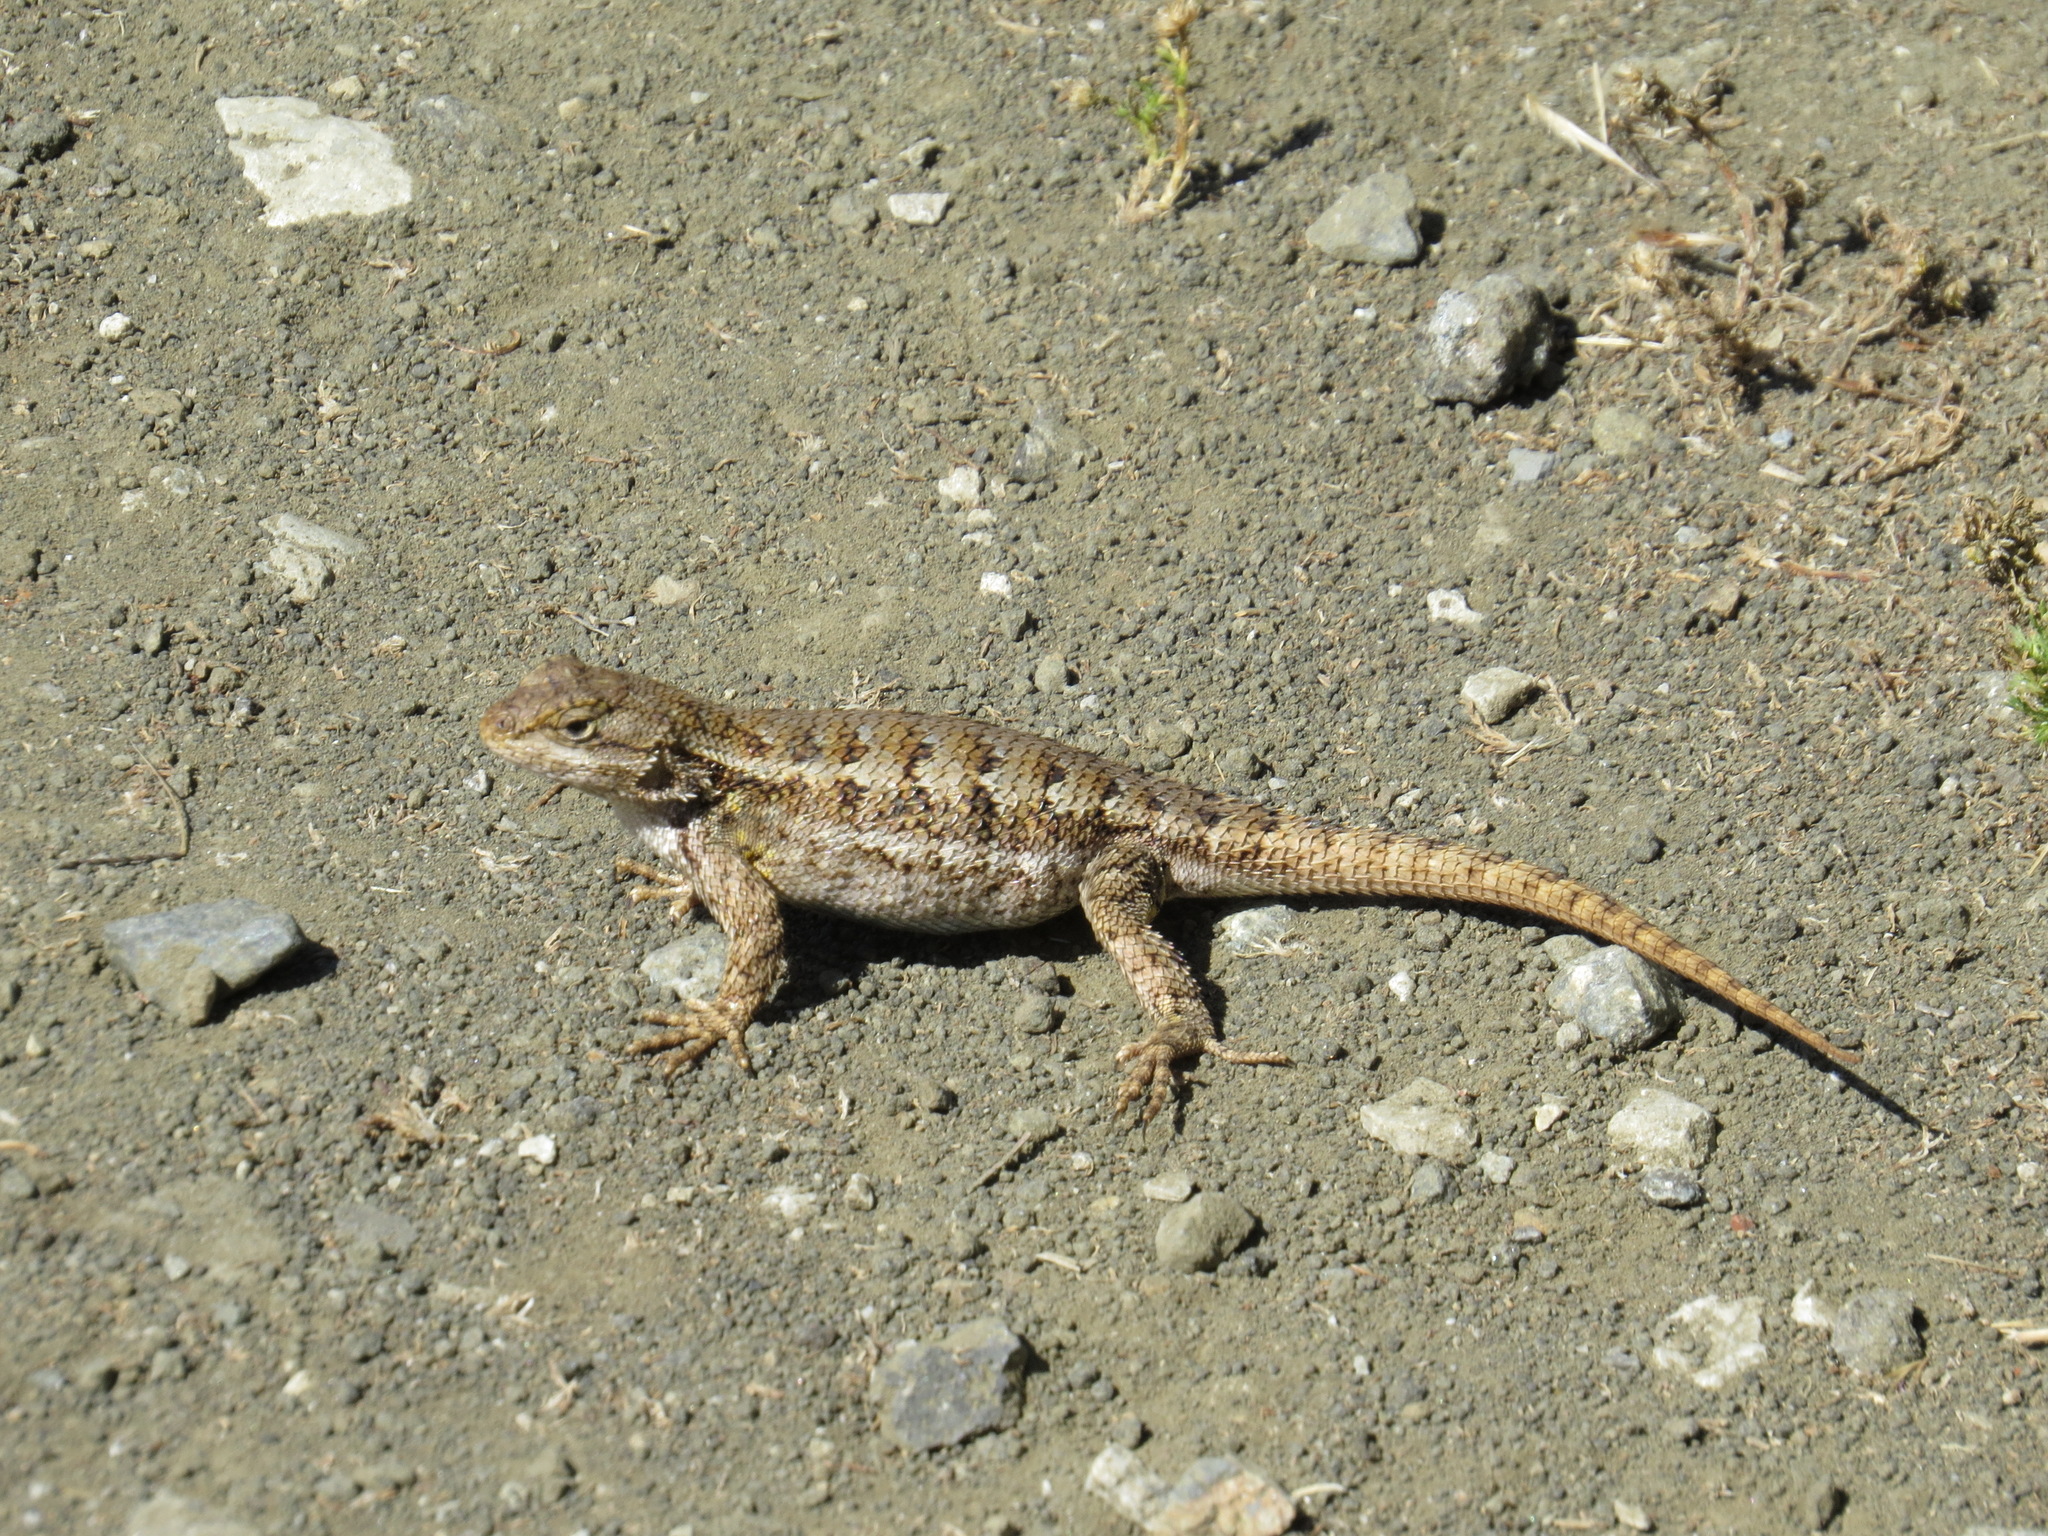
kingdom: Animalia
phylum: Chordata
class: Squamata
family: Phrynosomatidae
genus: Sceloporus
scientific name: Sceloporus occidentalis
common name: Western fence lizard
